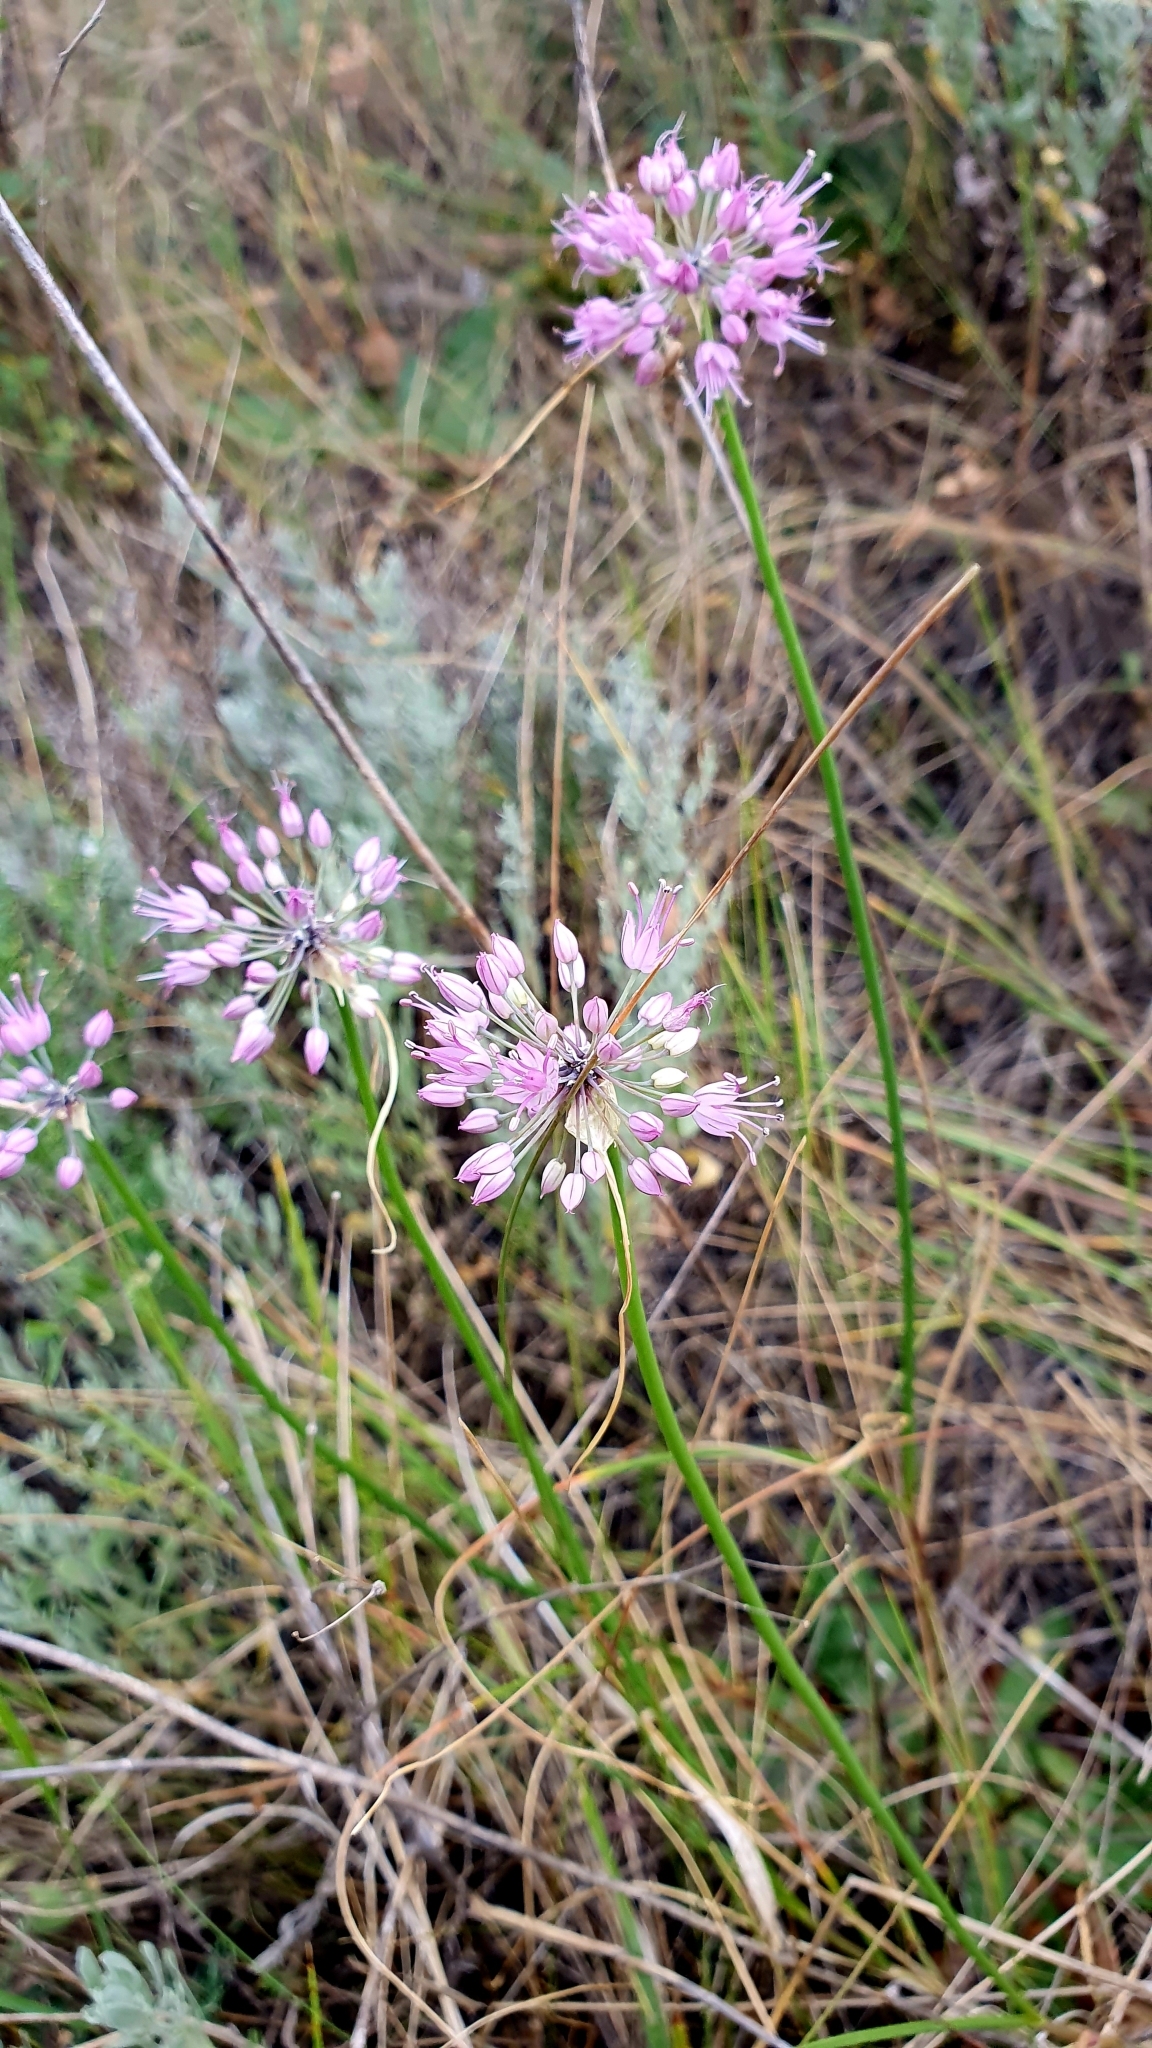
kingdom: Plantae
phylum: Tracheophyta
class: Liliopsida
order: Asparagales
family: Amaryllidaceae
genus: Allium
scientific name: Allium cretaceum
